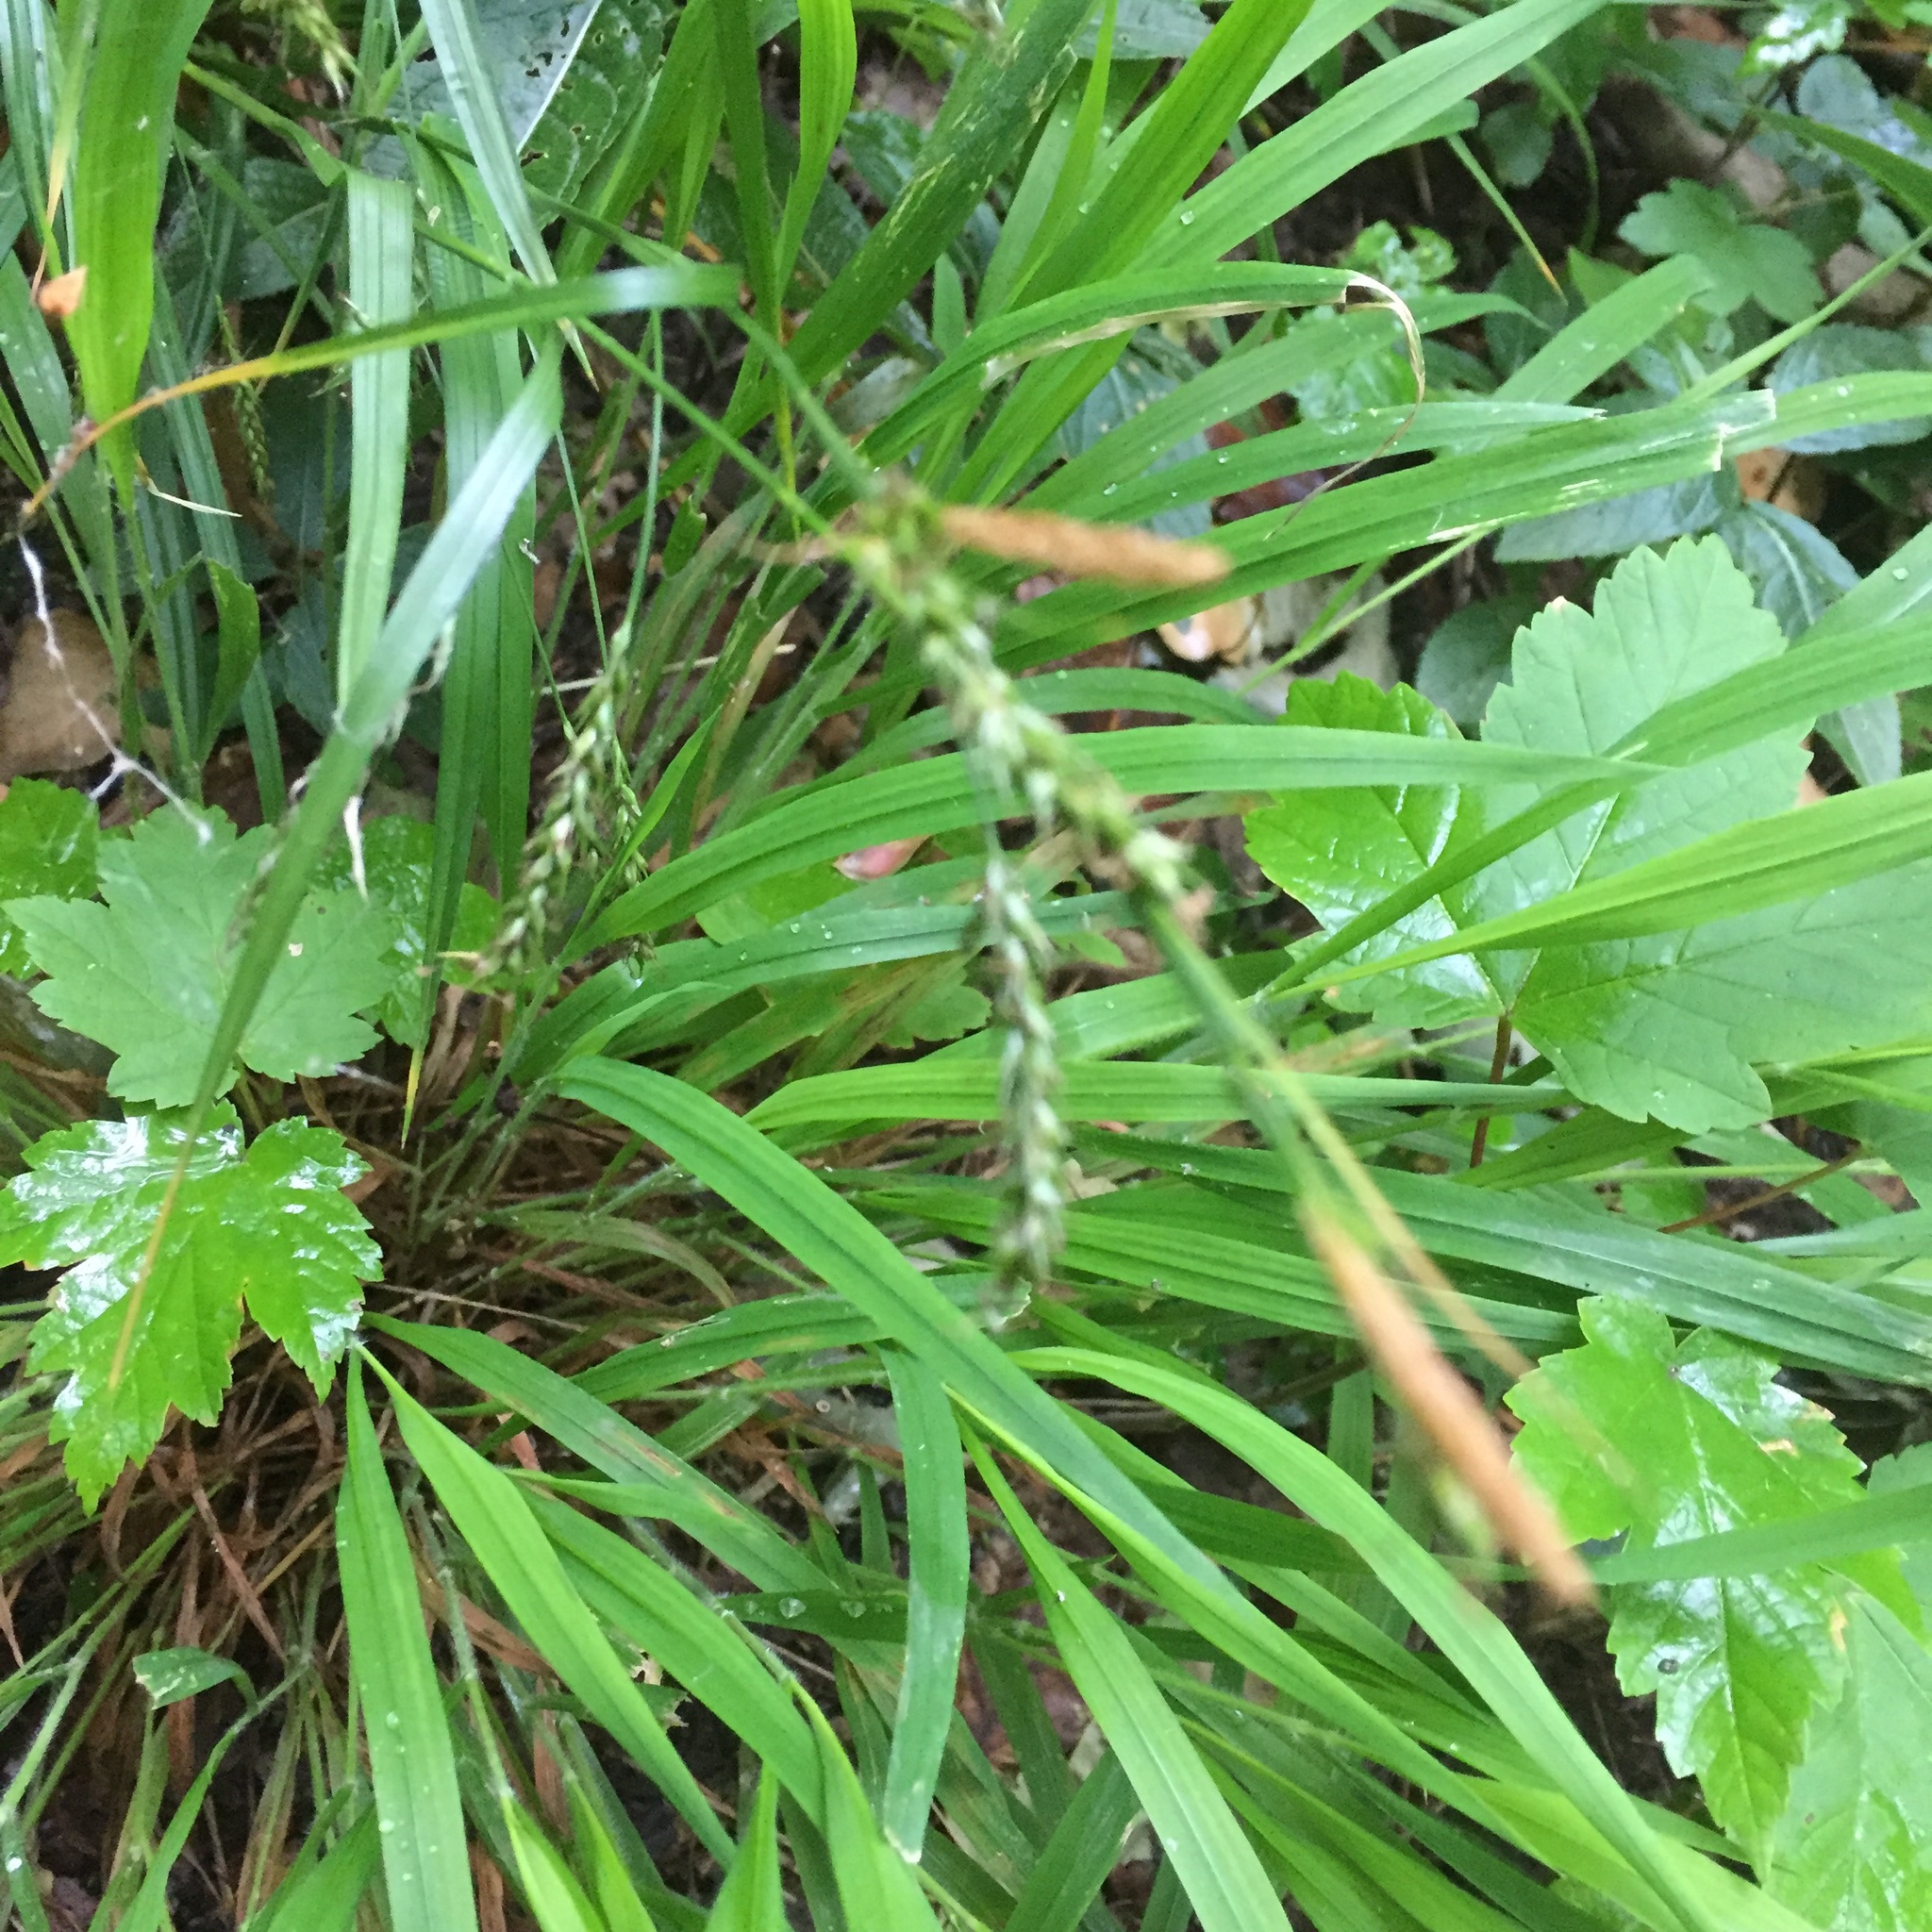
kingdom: Plantae
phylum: Tracheophyta
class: Liliopsida
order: Poales
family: Cyperaceae
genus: Carex
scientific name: Carex sylvatica
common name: Wood-sedge
